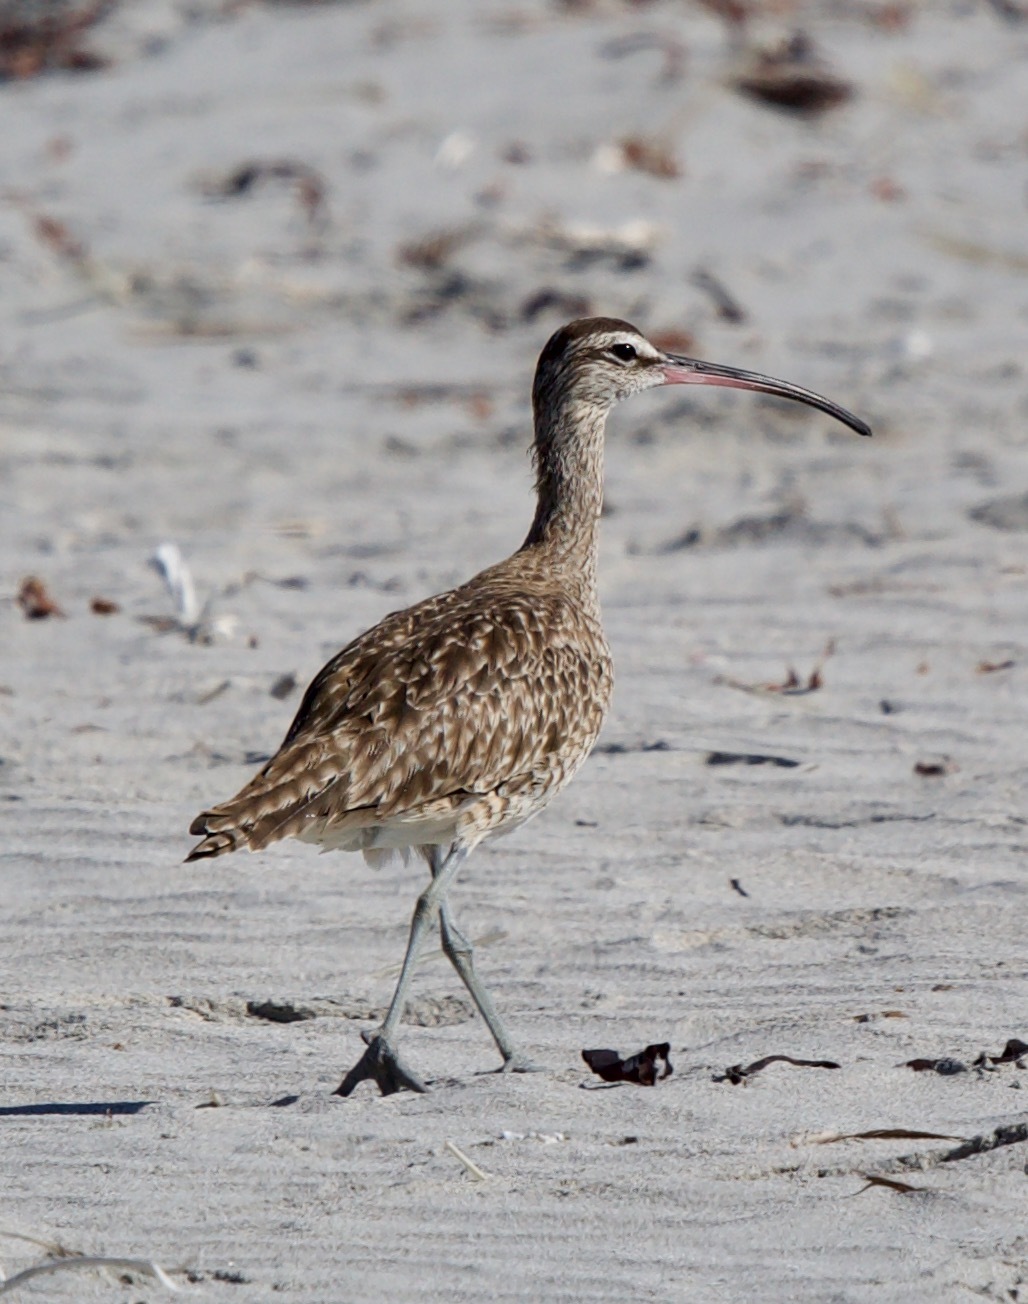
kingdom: Animalia
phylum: Chordata
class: Aves
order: Charadriiformes
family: Scolopacidae
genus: Numenius
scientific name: Numenius phaeopus
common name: Whimbrel
